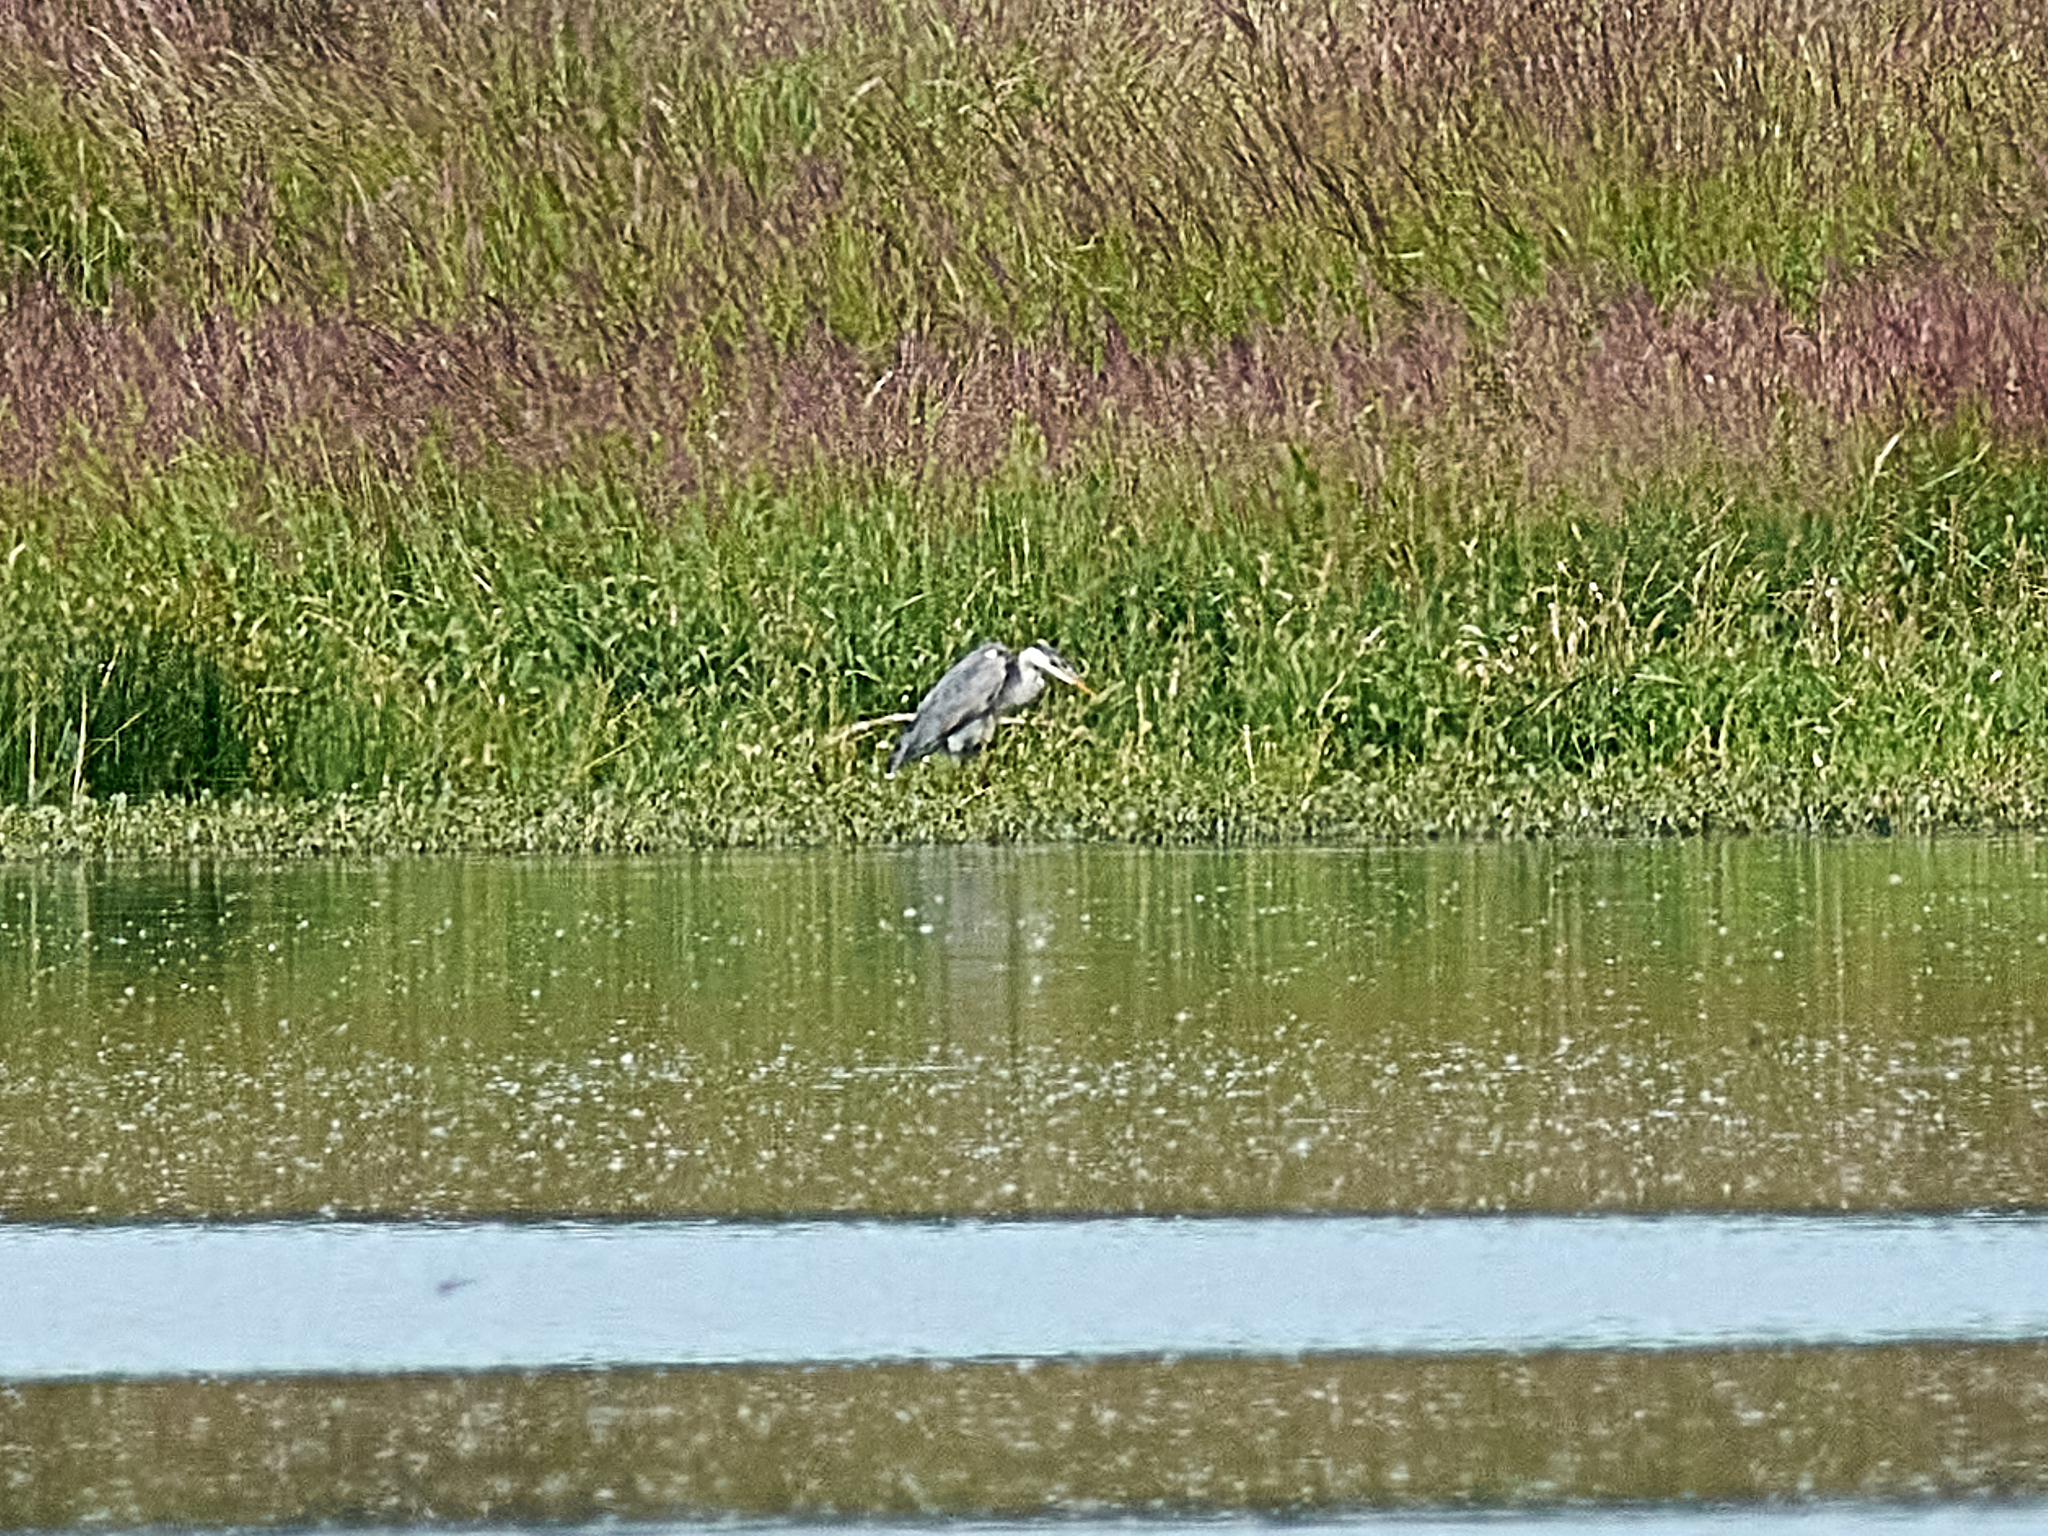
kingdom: Animalia
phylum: Chordata
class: Aves
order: Pelecaniformes
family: Ardeidae
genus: Ardea
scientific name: Ardea cinerea
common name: Grey heron
